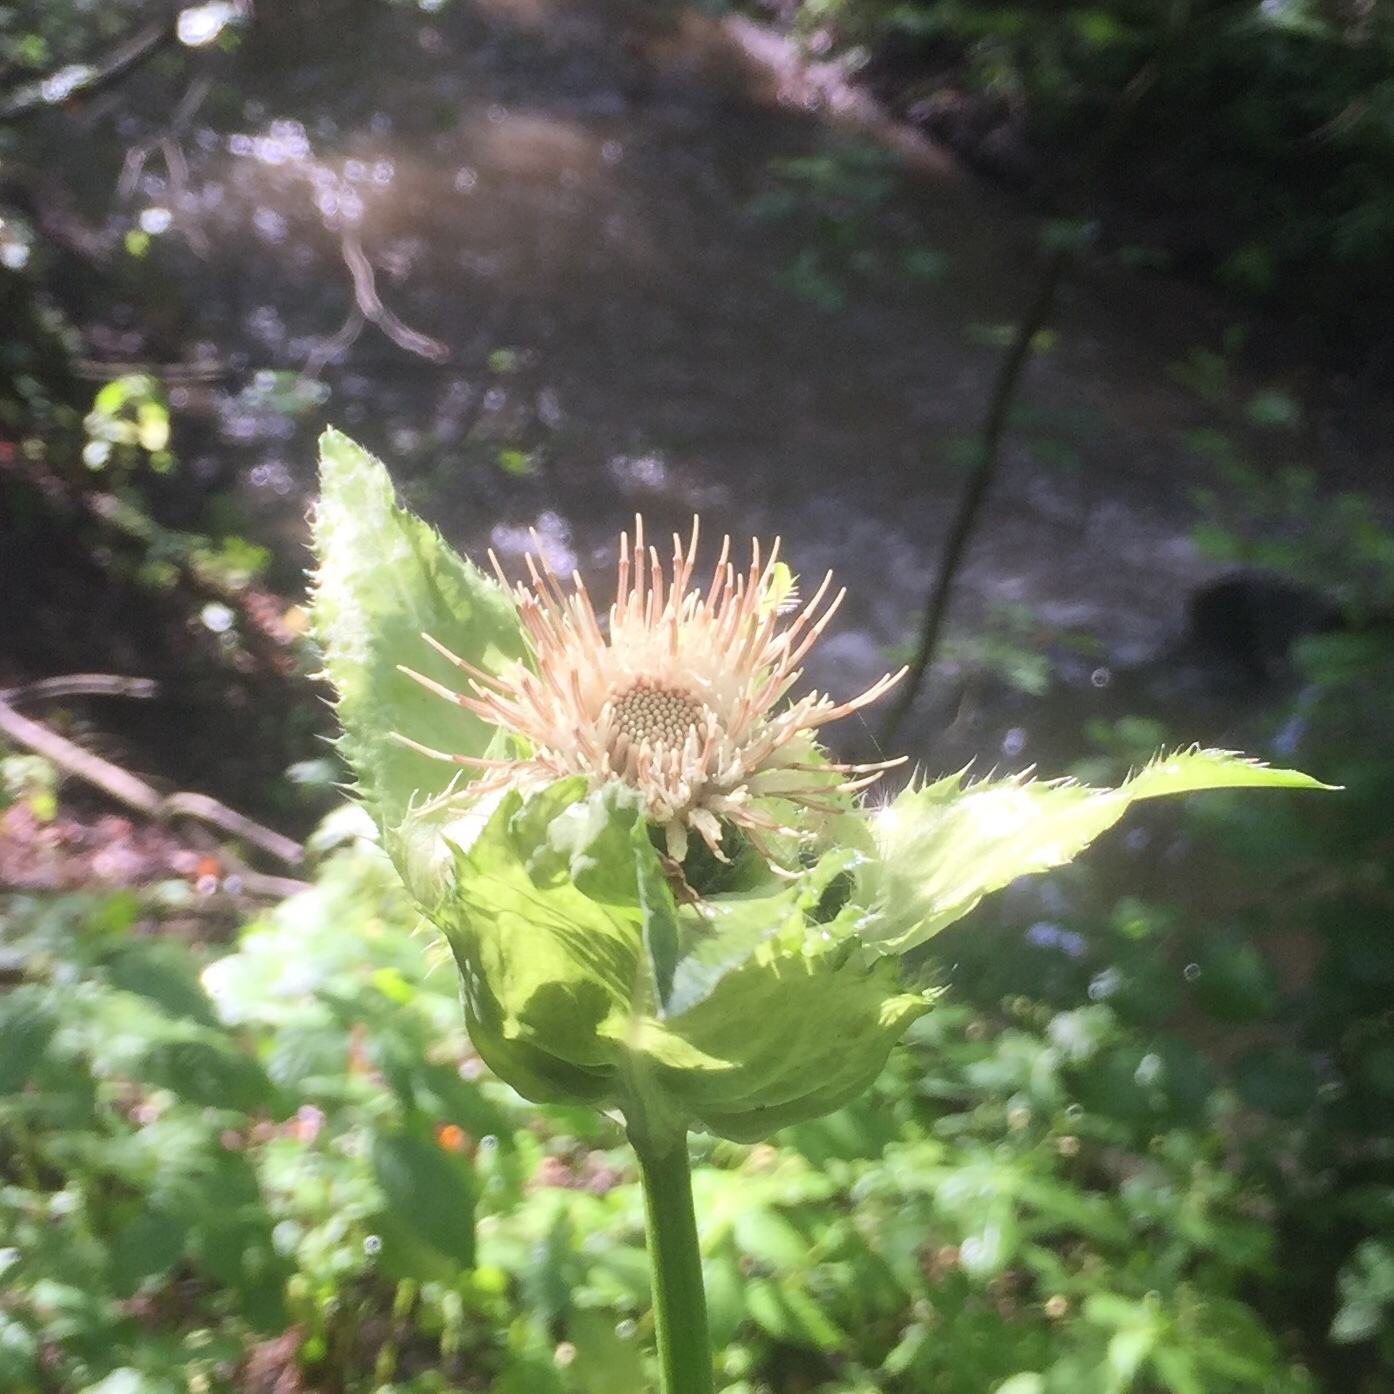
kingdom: Plantae
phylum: Tracheophyta
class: Magnoliopsida
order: Asterales
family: Asteraceae
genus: Cirsium
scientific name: Cirsium oleraceum
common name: Cabbage thistle
